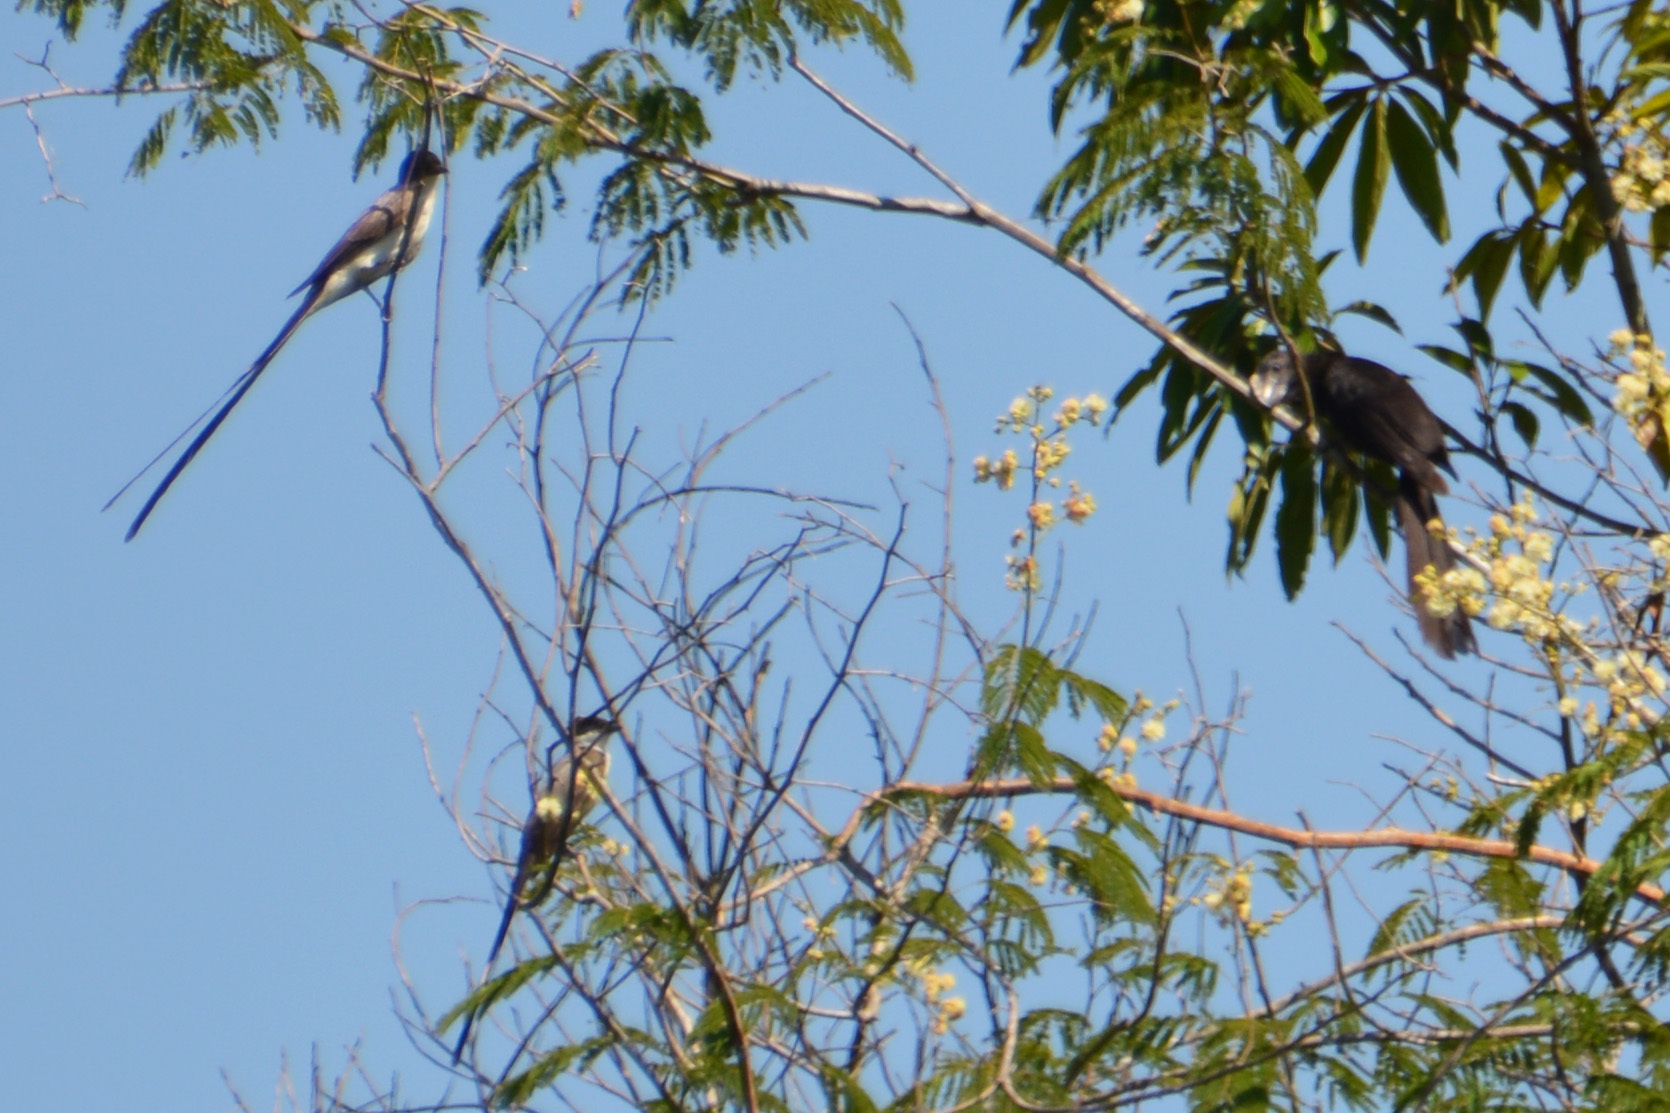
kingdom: Animalia
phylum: Chordata
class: Aves
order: Cuculiformes
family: Cuculidae
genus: Crotophaga
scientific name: Crotophaga ani
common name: Smooth-billed ani
